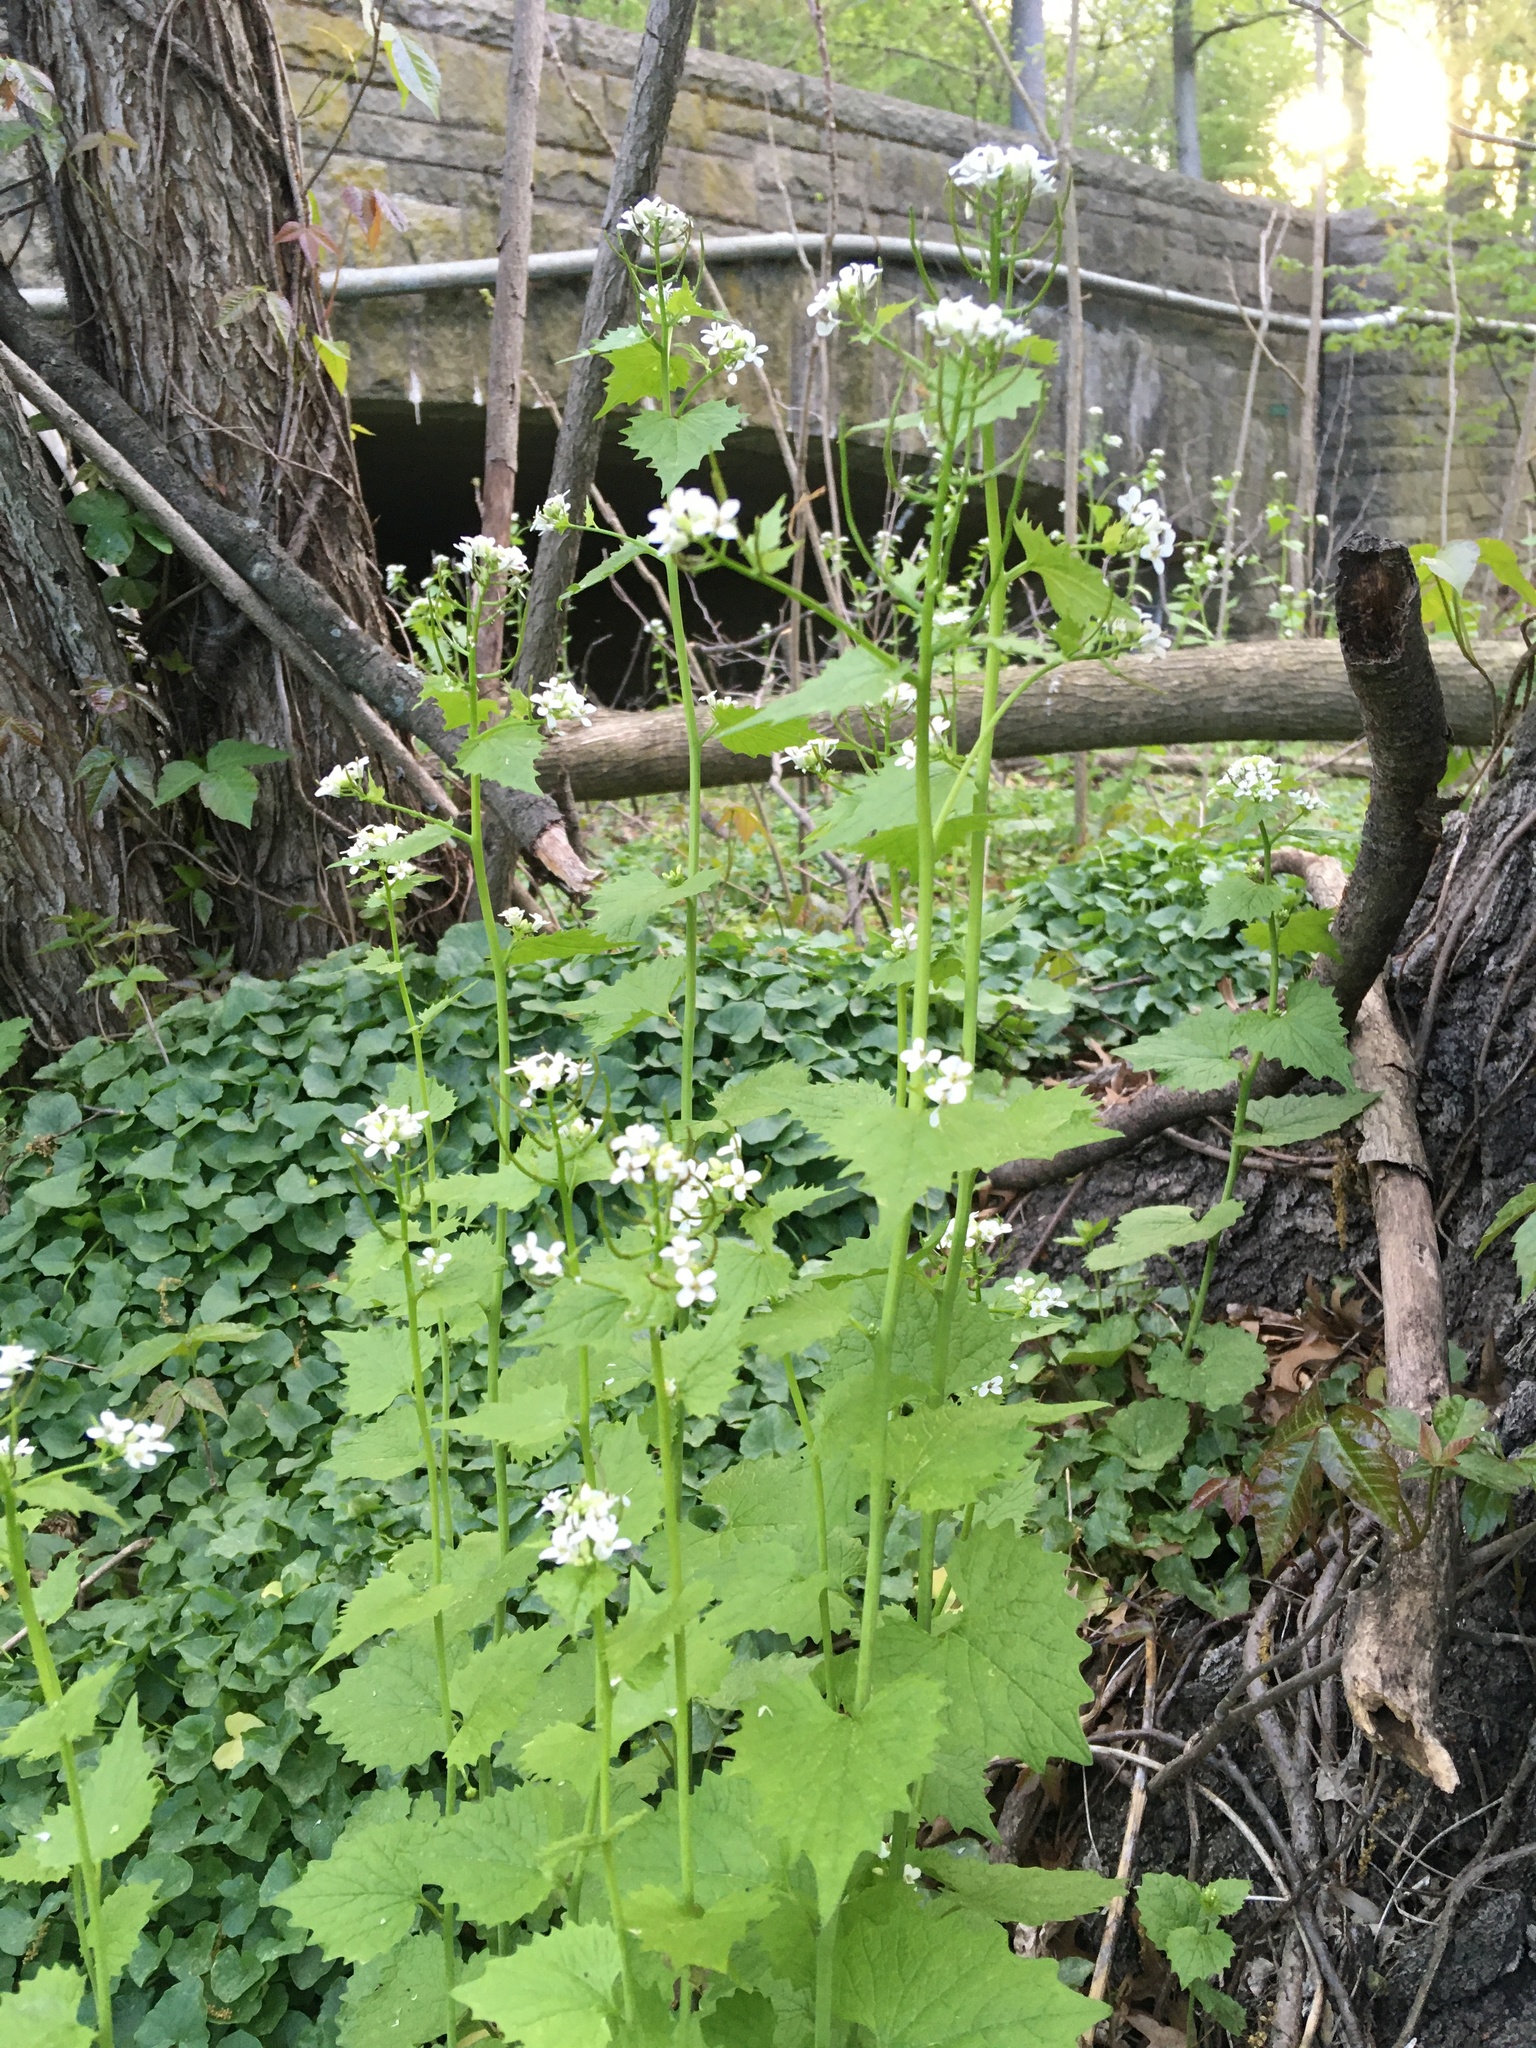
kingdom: Plantae
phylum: Tracheophyta
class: Magnoliopsida
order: Brassicales
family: Brassicaceae
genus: Alliaria
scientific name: Alliaria petiolata
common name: Garlic mustard
